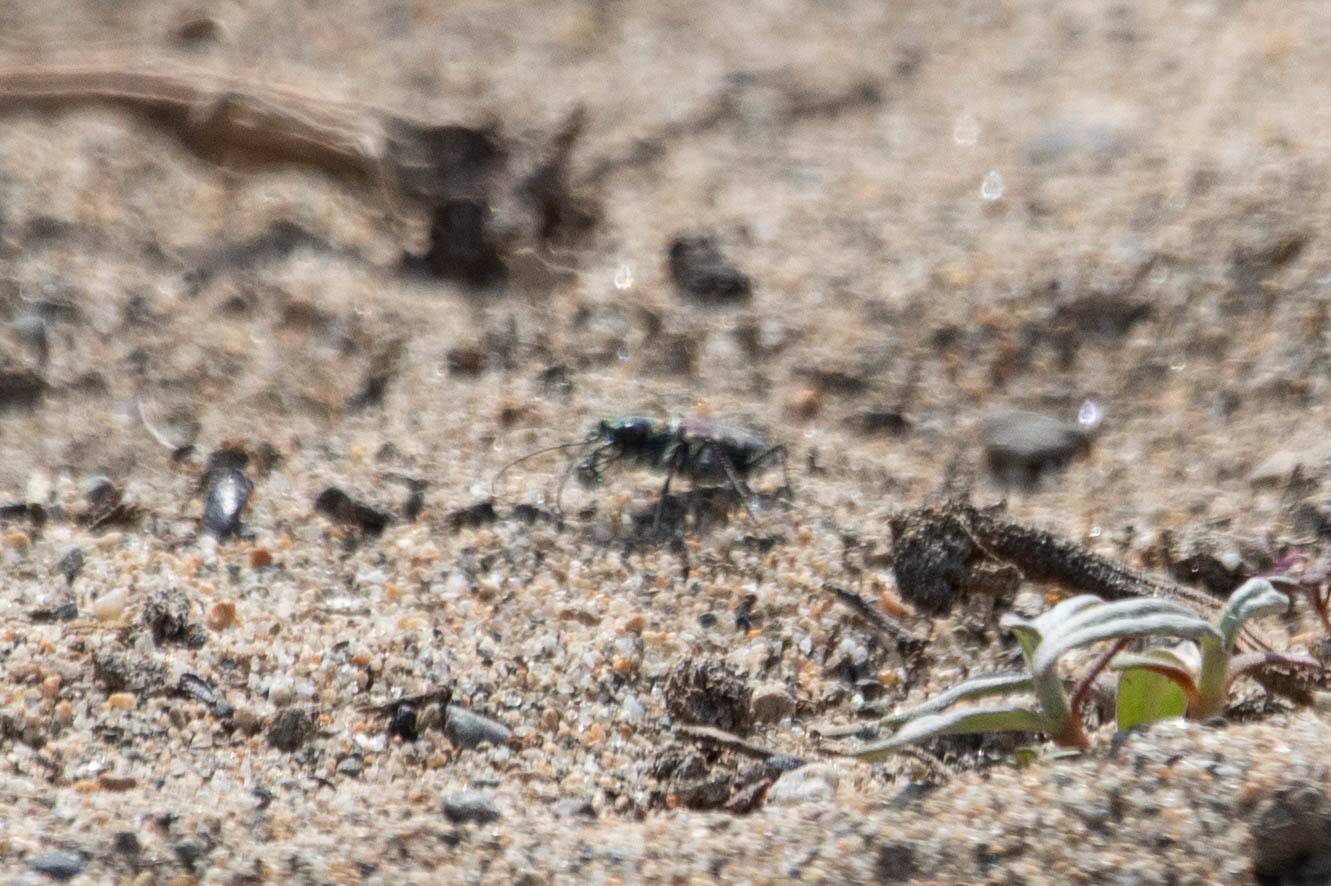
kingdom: Animalia
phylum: Arthropoda
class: Insecta
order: Coleoptera
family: Carabidae
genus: Cicindela
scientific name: Cicindela oregona
